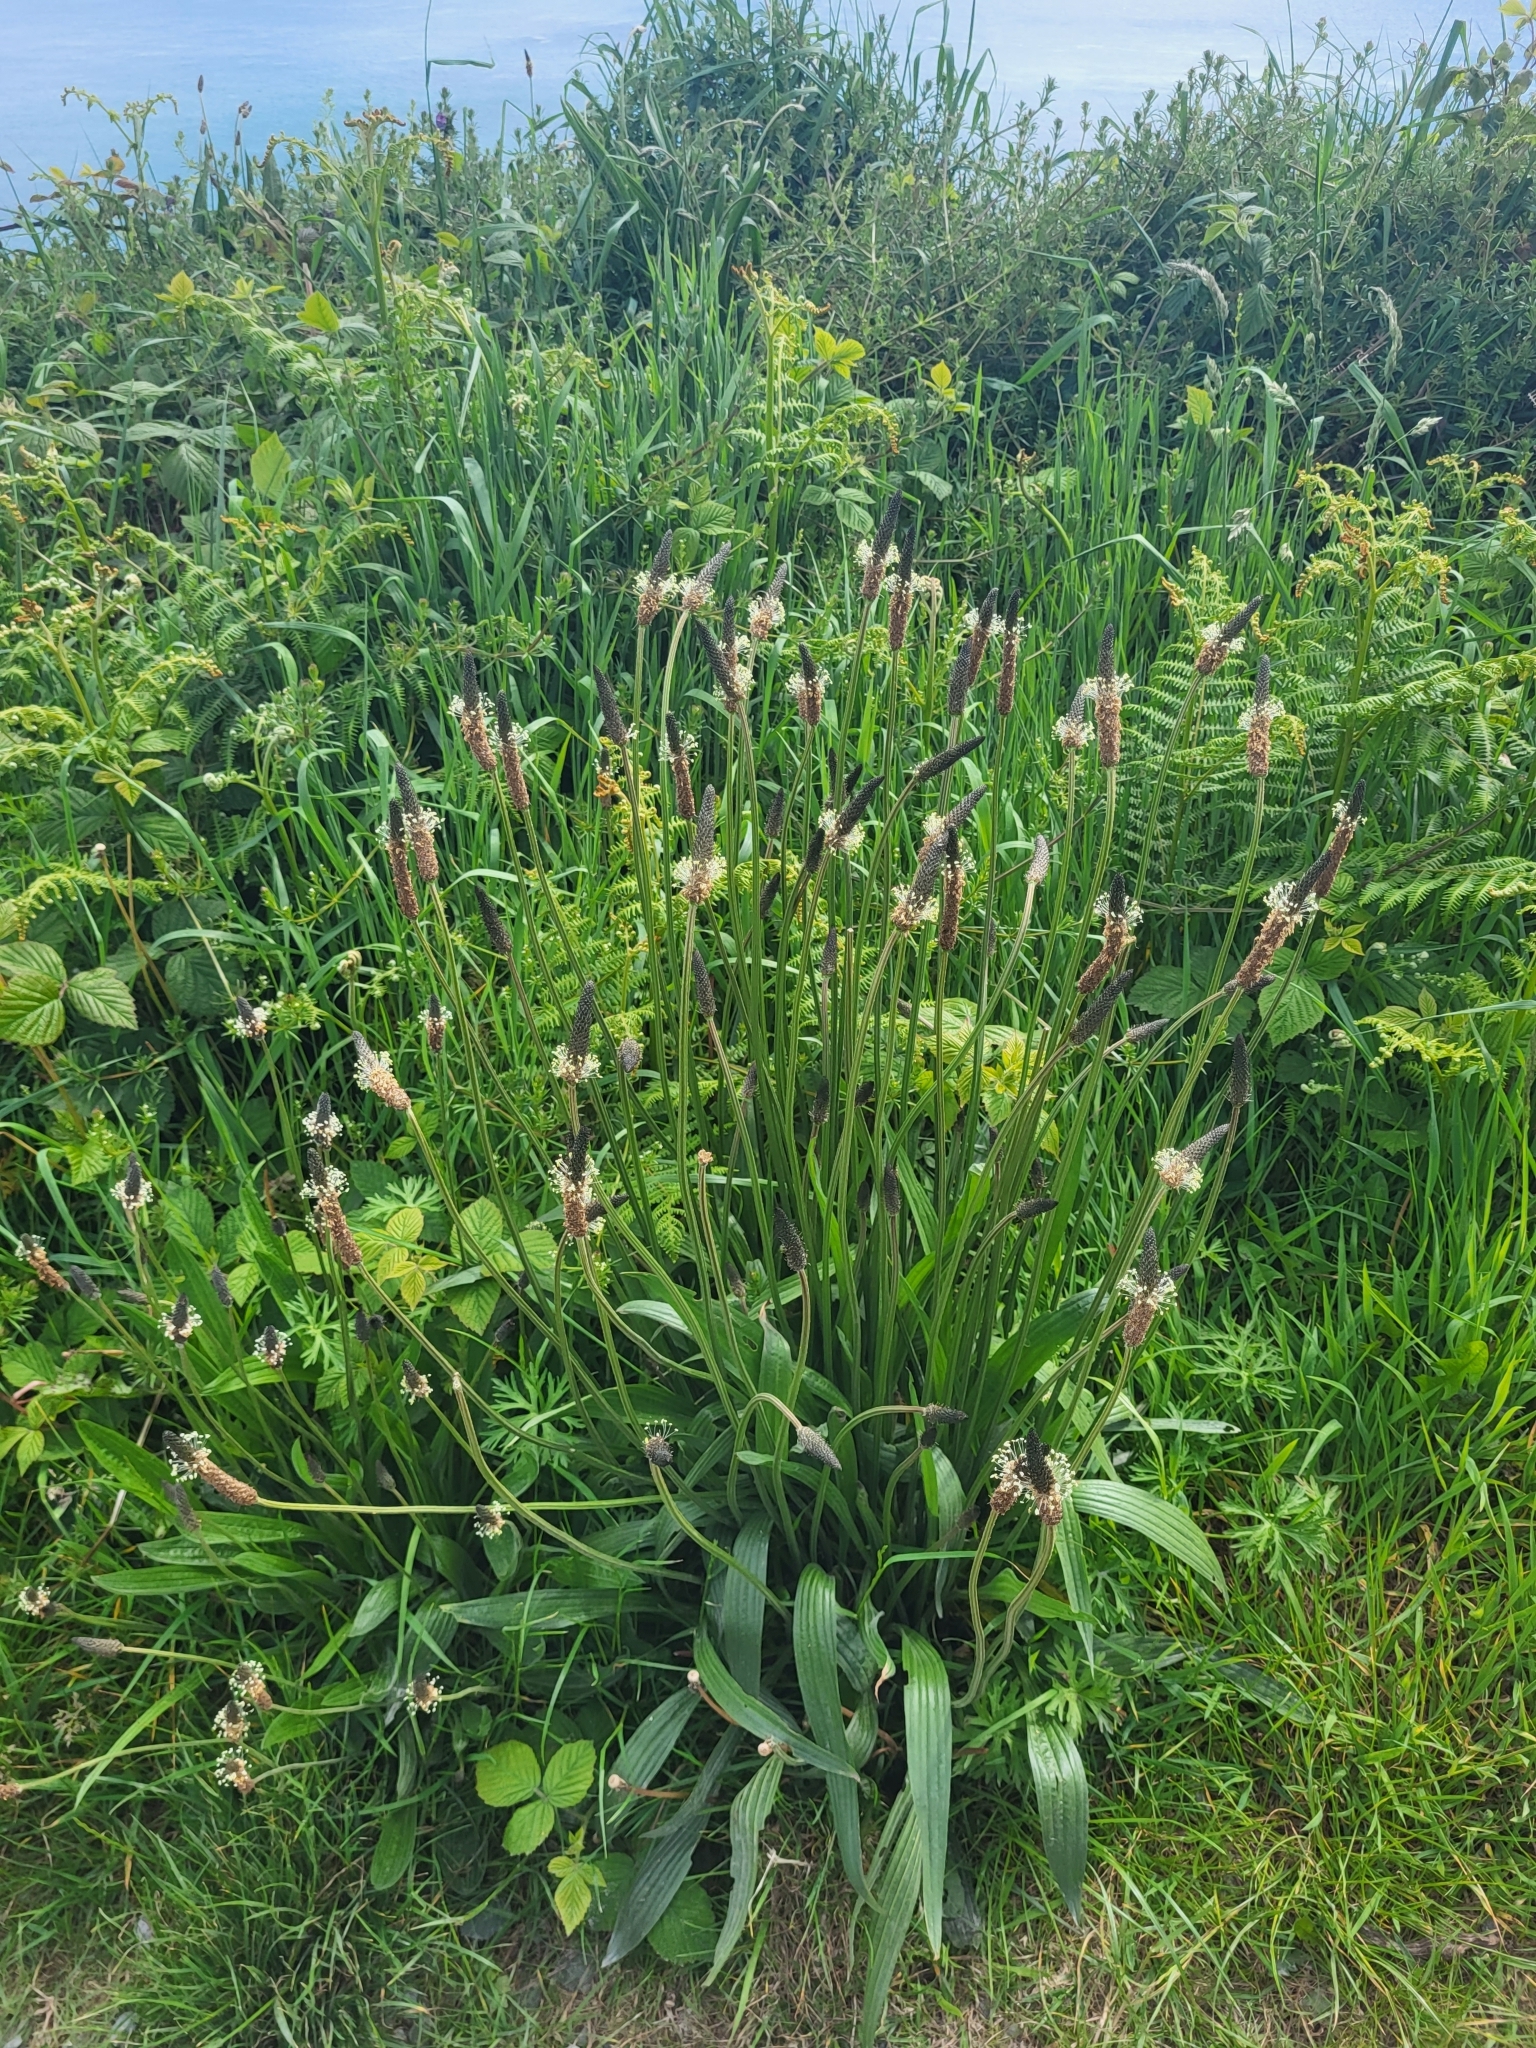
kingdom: Plantae
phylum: Tracheophyta
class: Magnoliopsida
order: Lamiales
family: Plantaginaceae
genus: Plantago
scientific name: Plantago lanceolata
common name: Ribwort plantain
